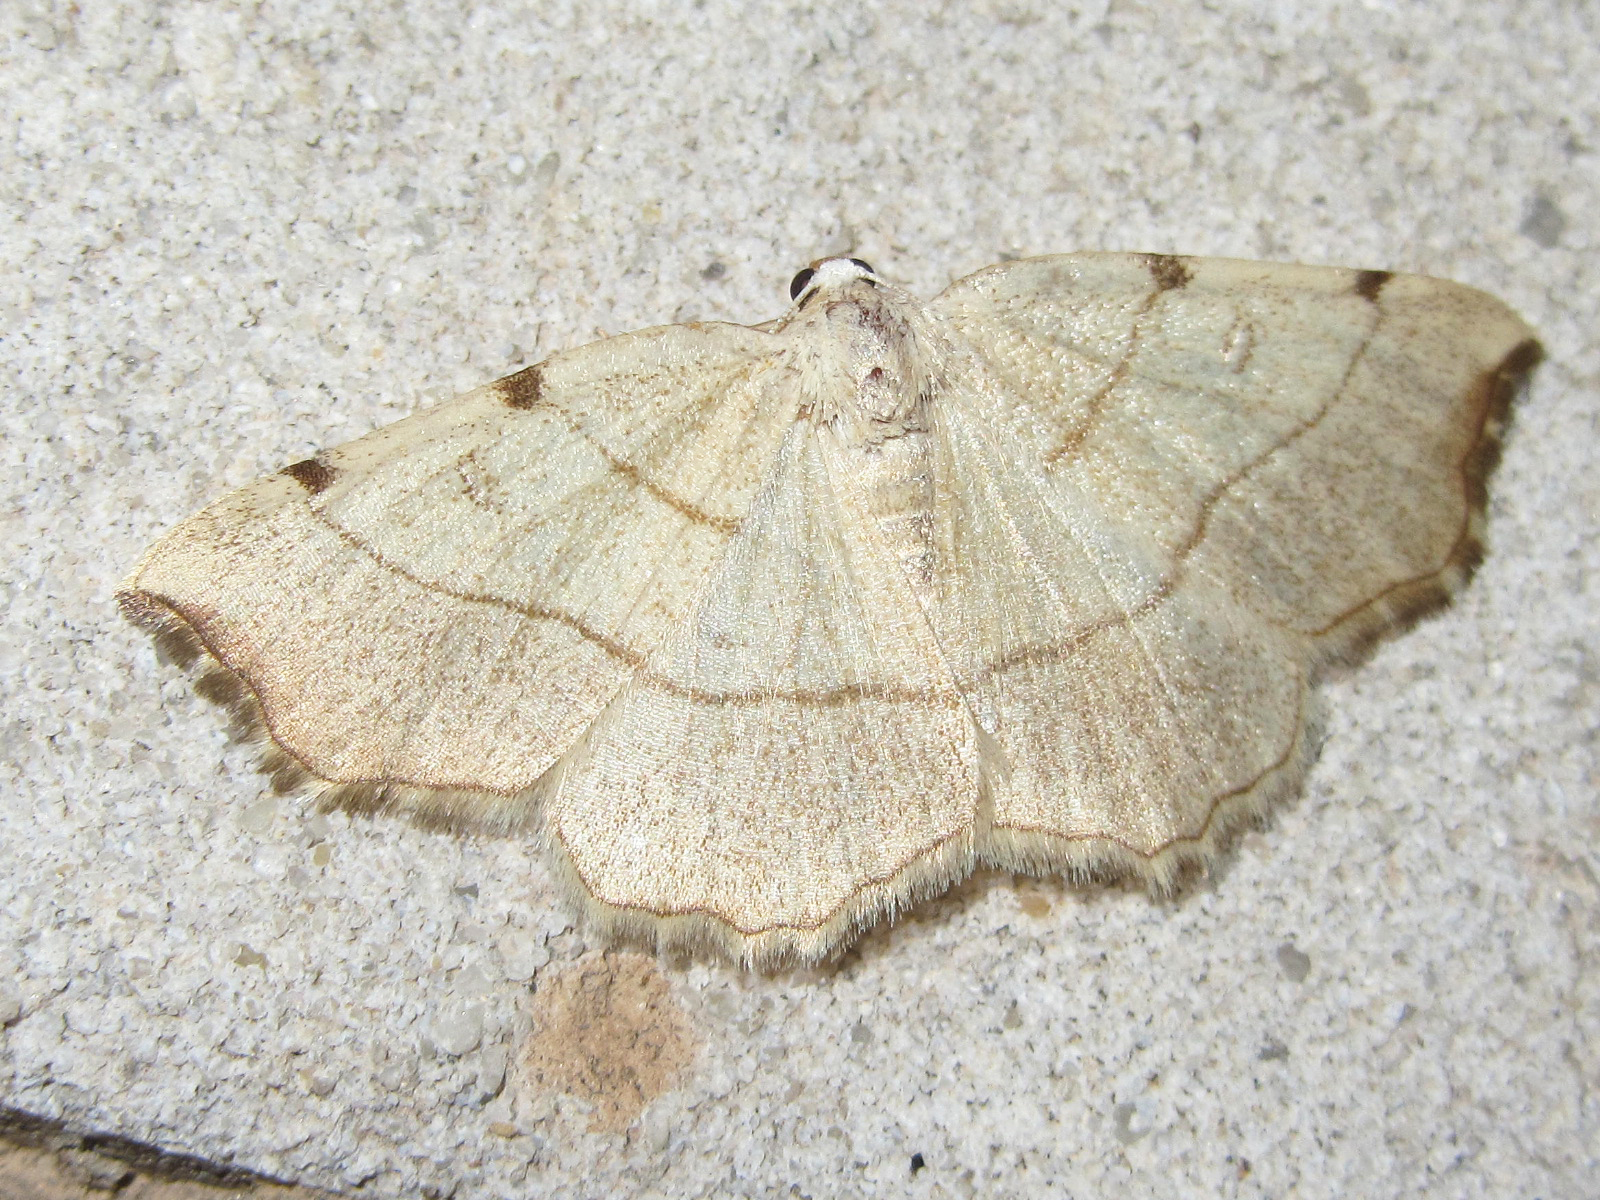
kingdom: Animalia
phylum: Arthropoda
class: Insecta
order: Lepidoptera
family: Geometridae
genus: Eilicrinia
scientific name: Eilicrinia trinotata
